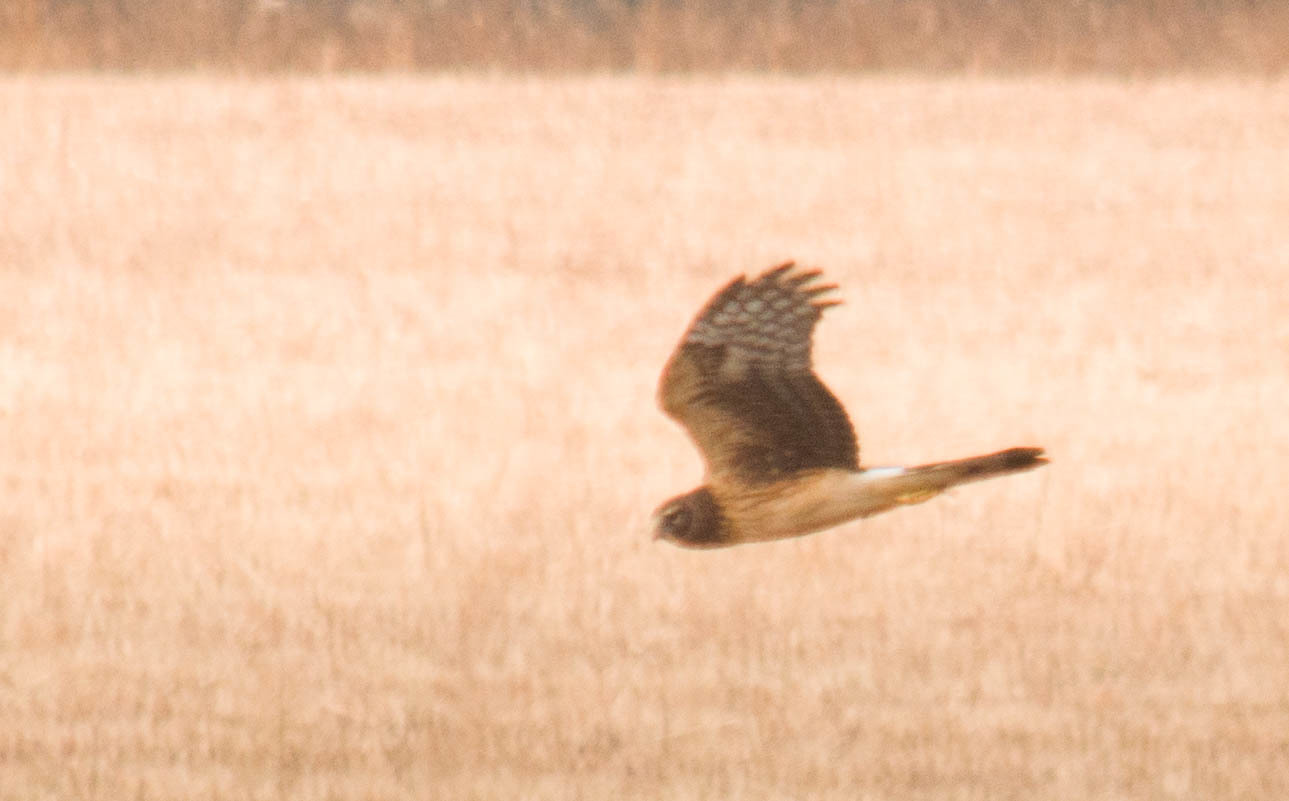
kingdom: Animalia
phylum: Chordata
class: Aves
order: Accipitriformes
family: Accipitridae
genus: Circus
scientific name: Circus cyaneus
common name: Hen harrier
